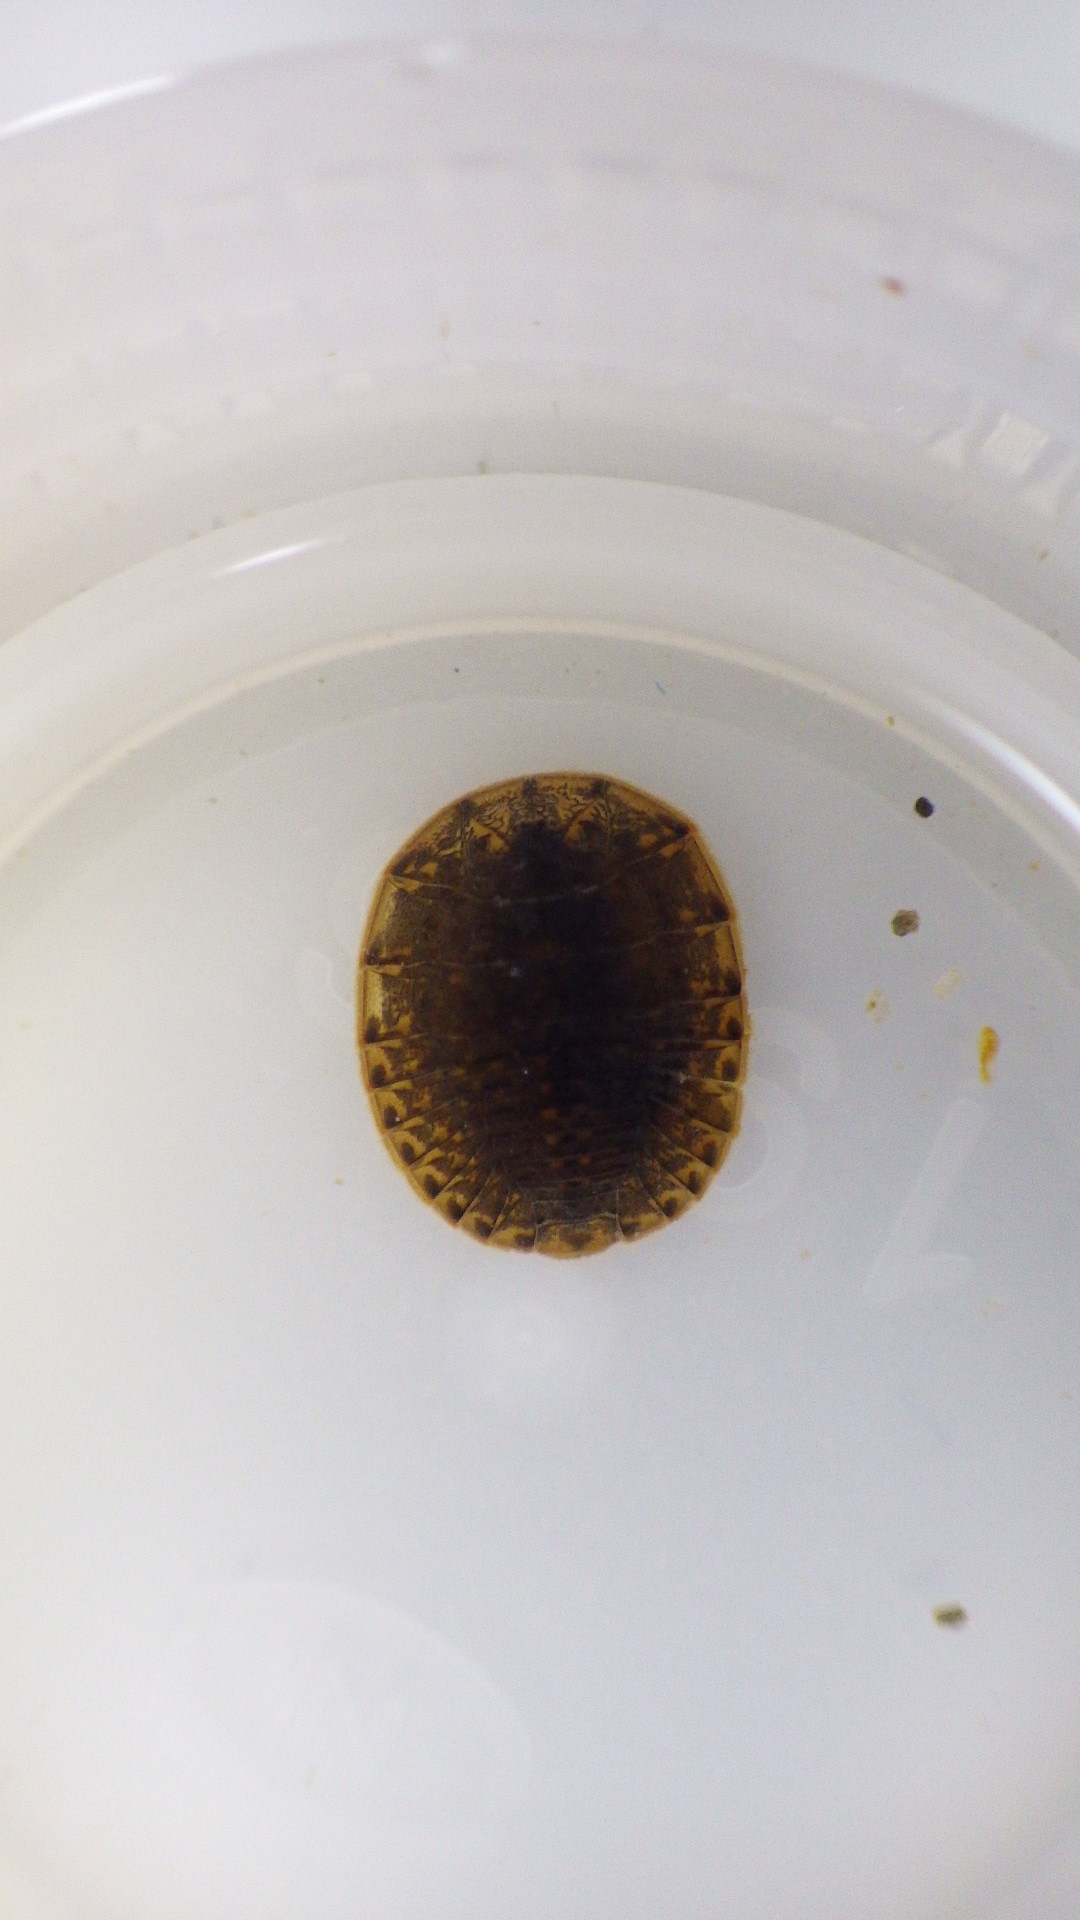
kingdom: Animalia
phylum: Arthropoda
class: Insecta
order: Coleoptera
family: Psephenidae
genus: Psephenus
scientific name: Psephenus herricki
